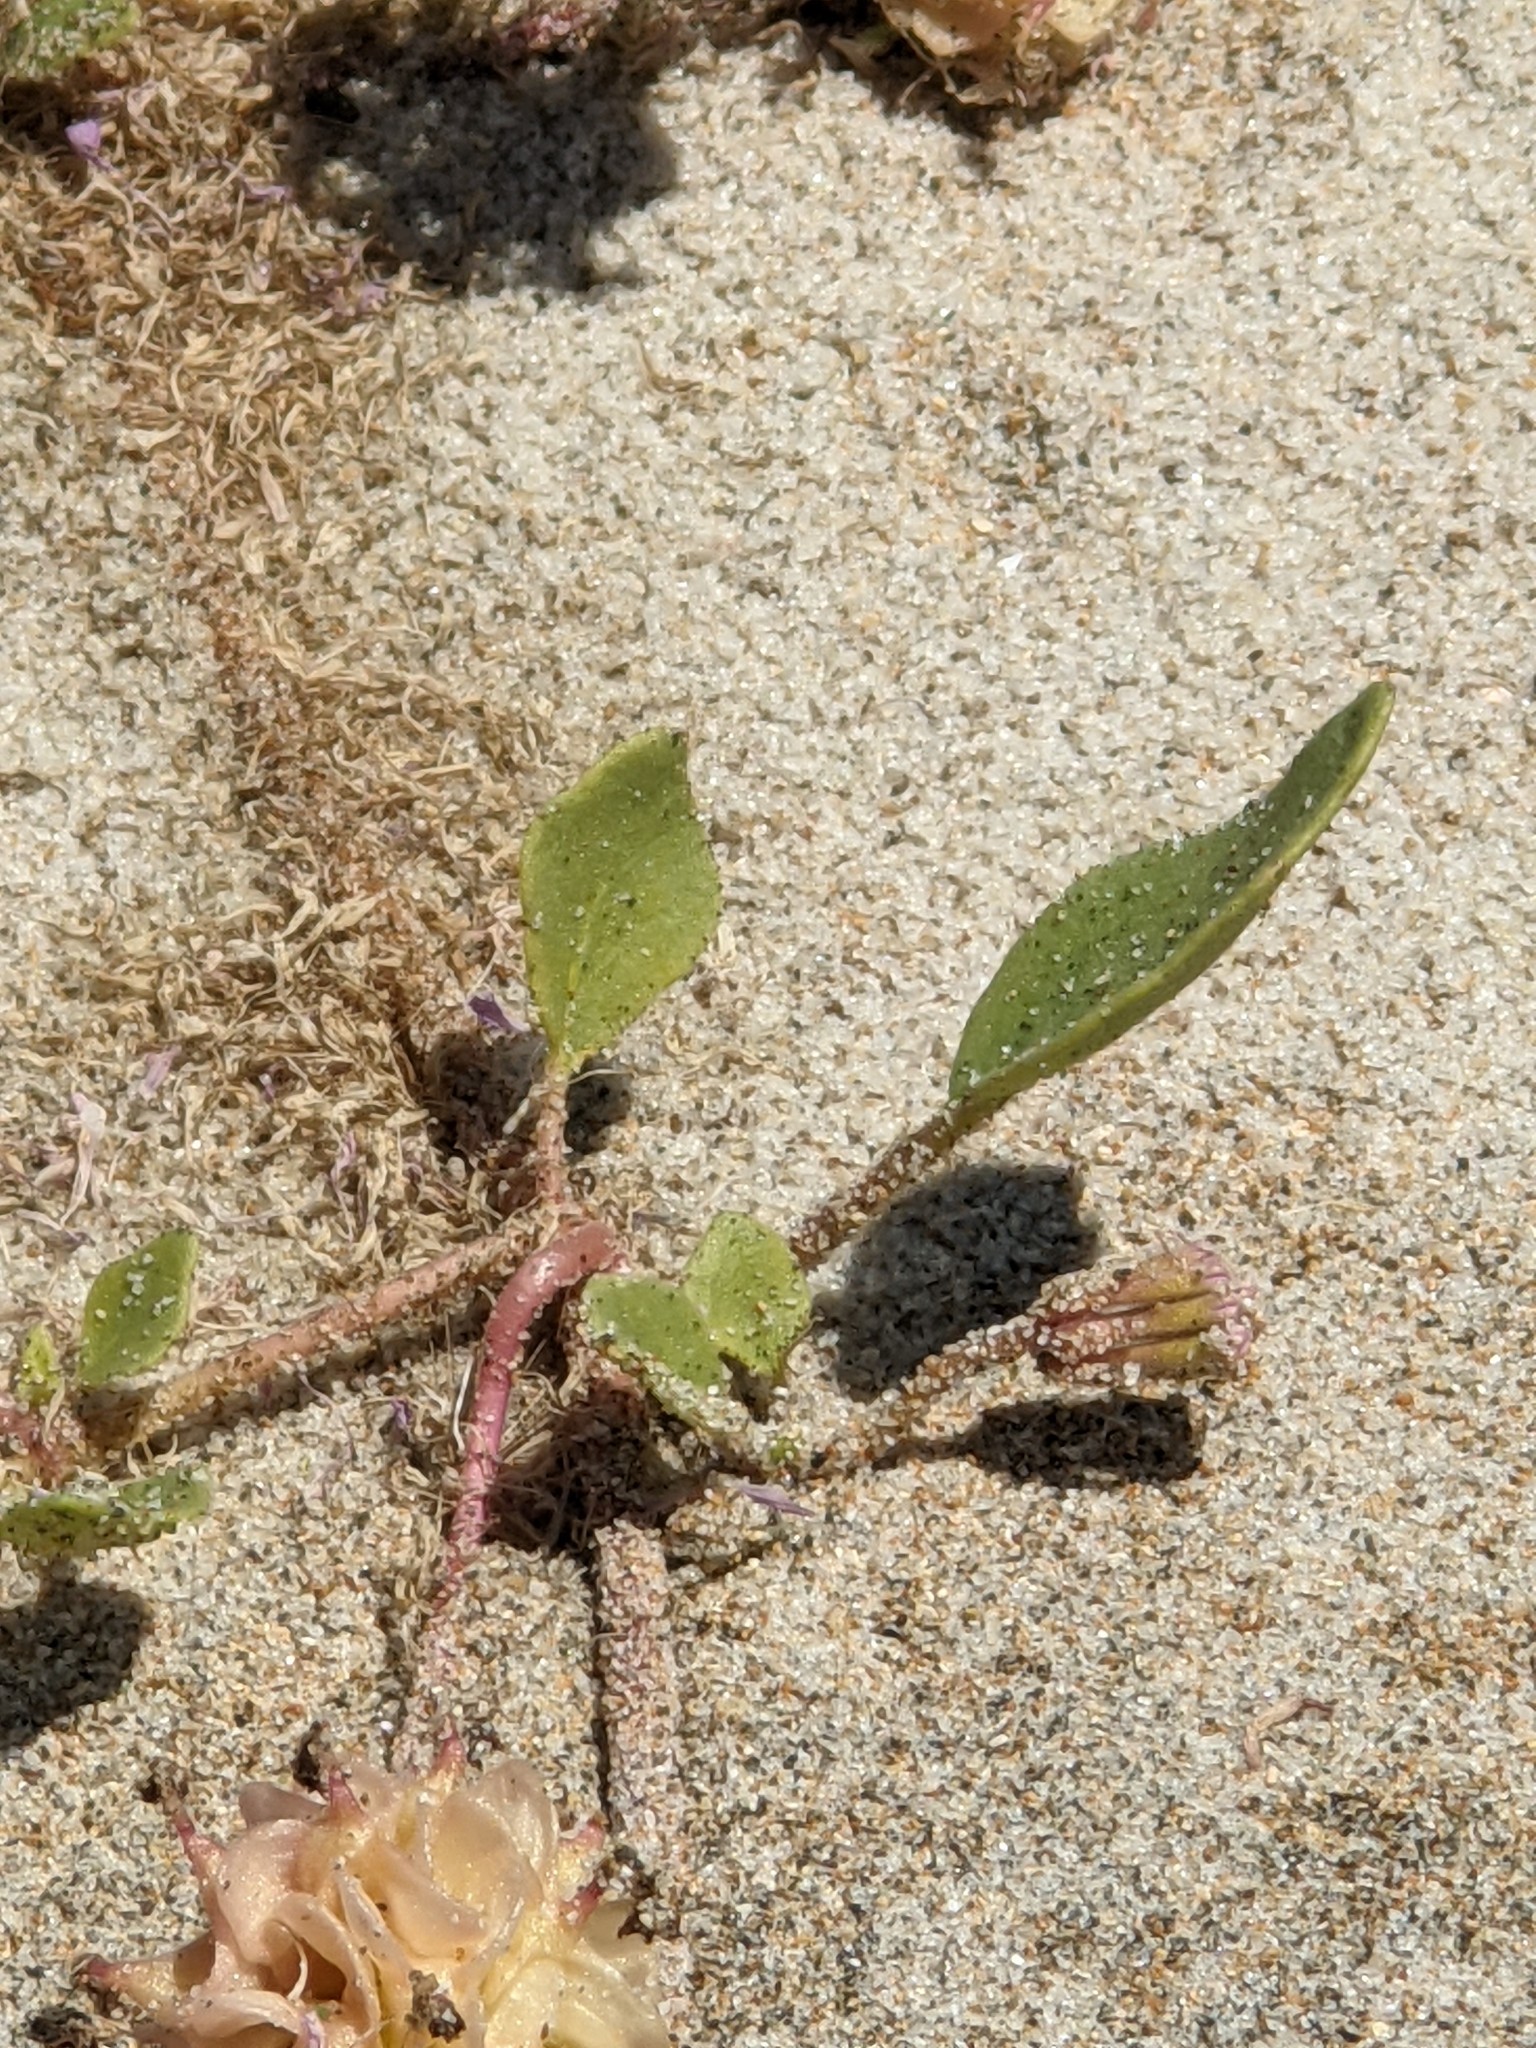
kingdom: Plantae
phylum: Tracheophyta
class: Magnoliopsida
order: Caryophyllales
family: Nyctaginaceae
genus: Abronia
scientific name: Abronia umbellata
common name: Sand-verbena
